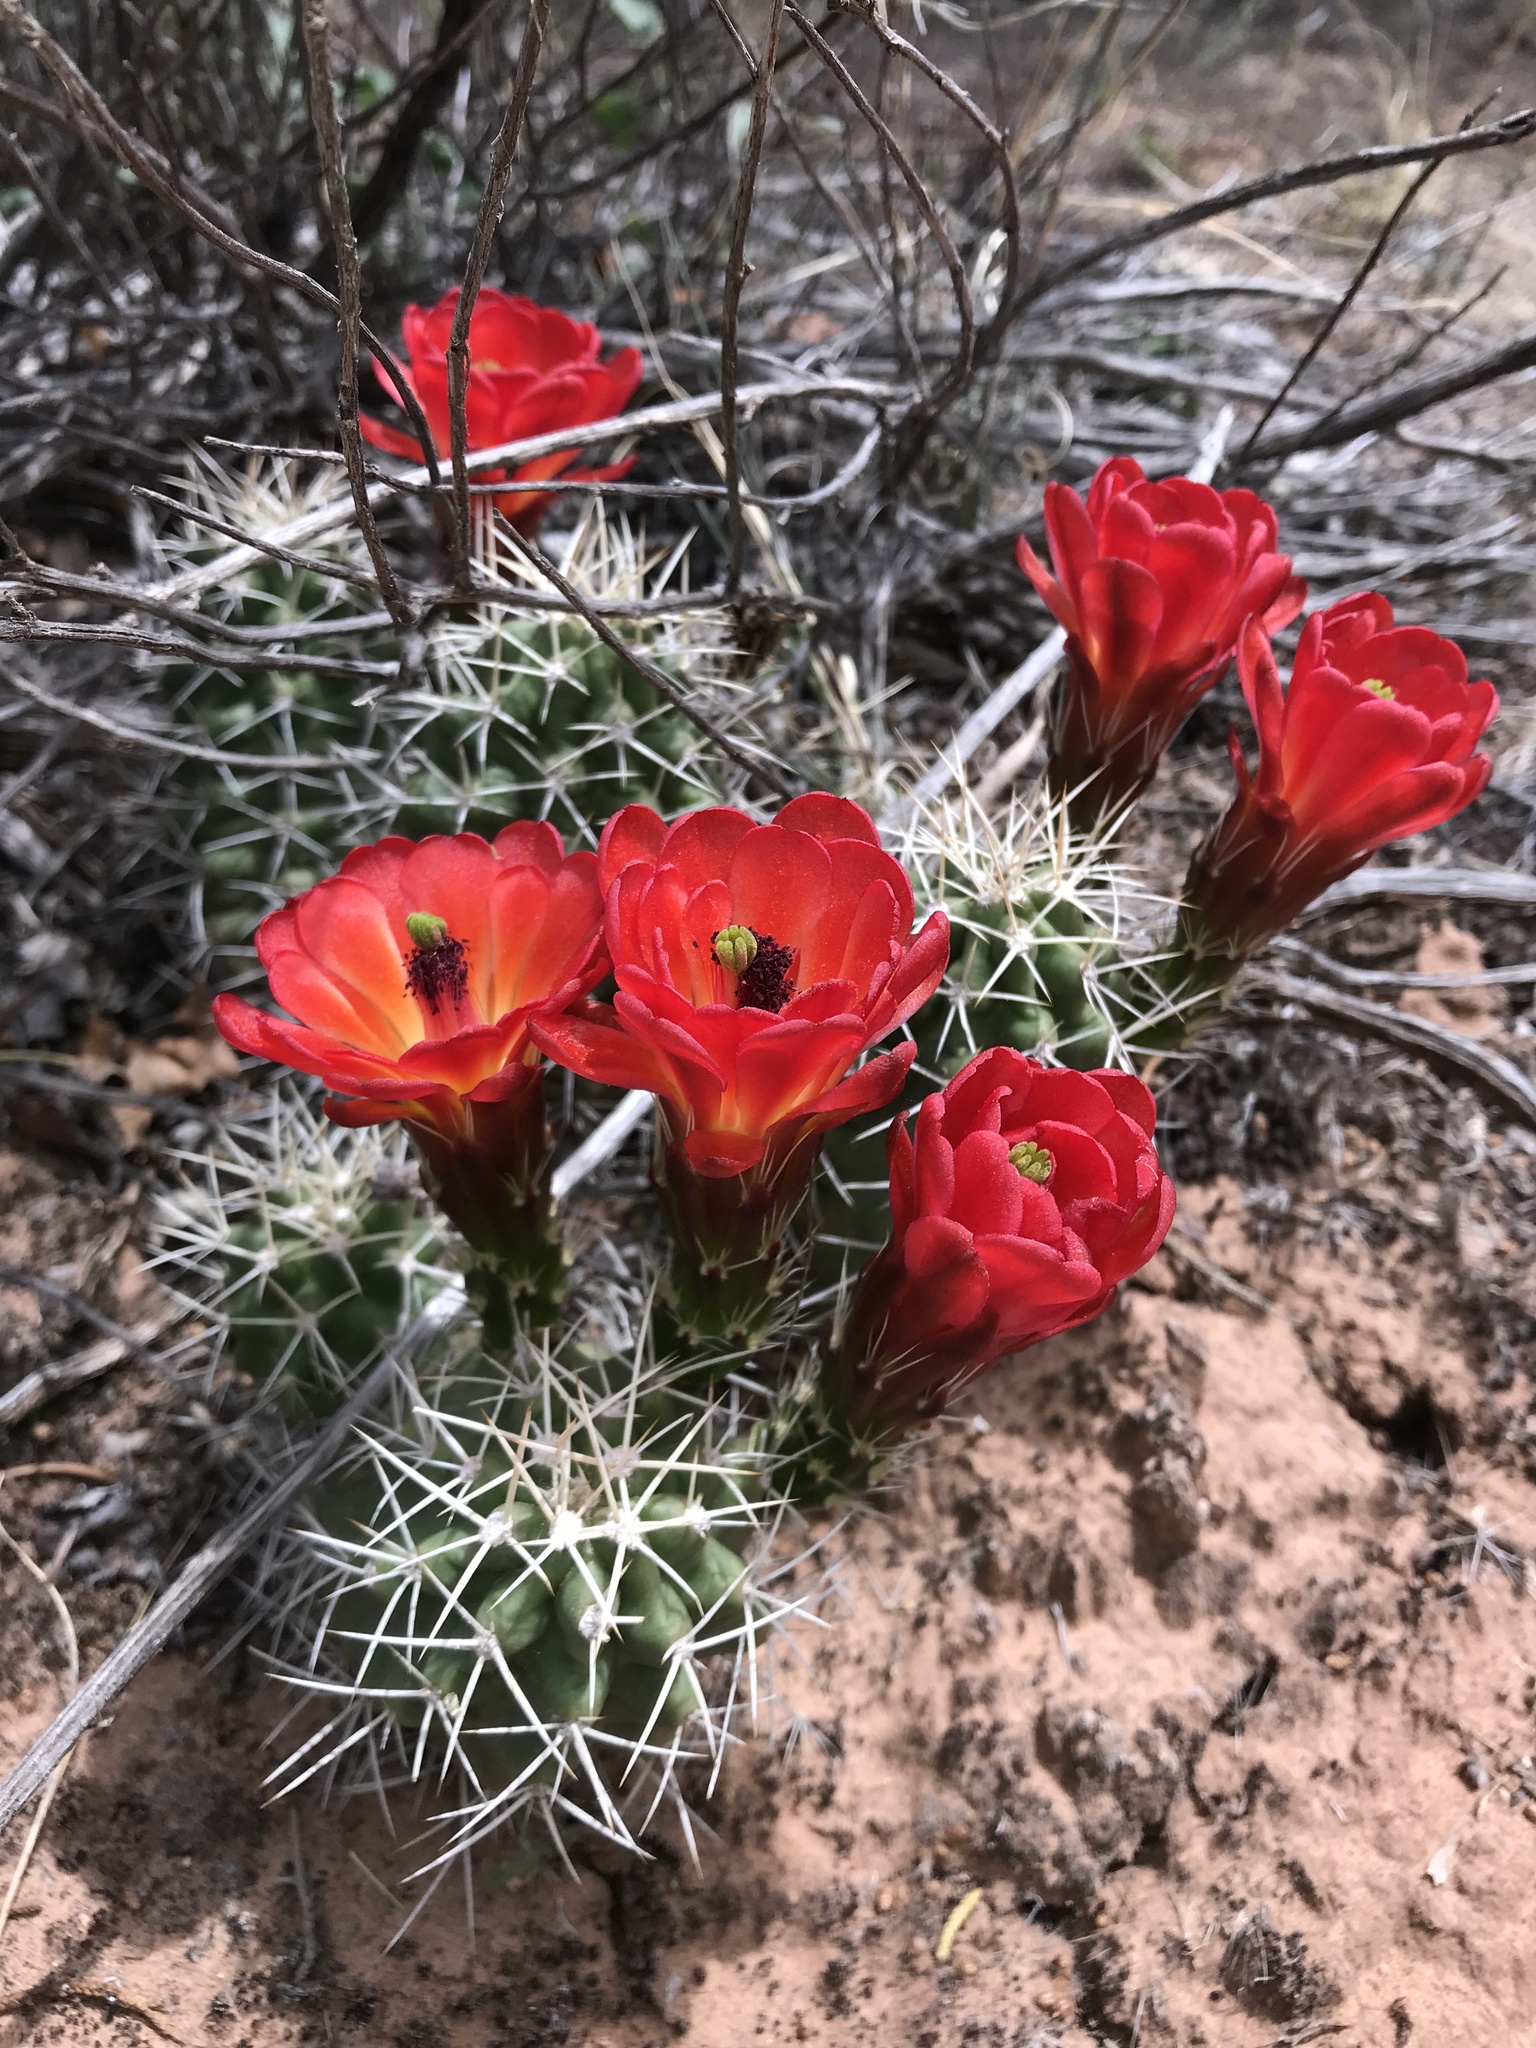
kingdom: Plantae
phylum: Tracheophyta
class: Magnoliopsida
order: Caryophyllales
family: Cactaceae
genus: Echinocereus
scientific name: Echinocereus triglochidiatus
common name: Claretcup hedgehog
